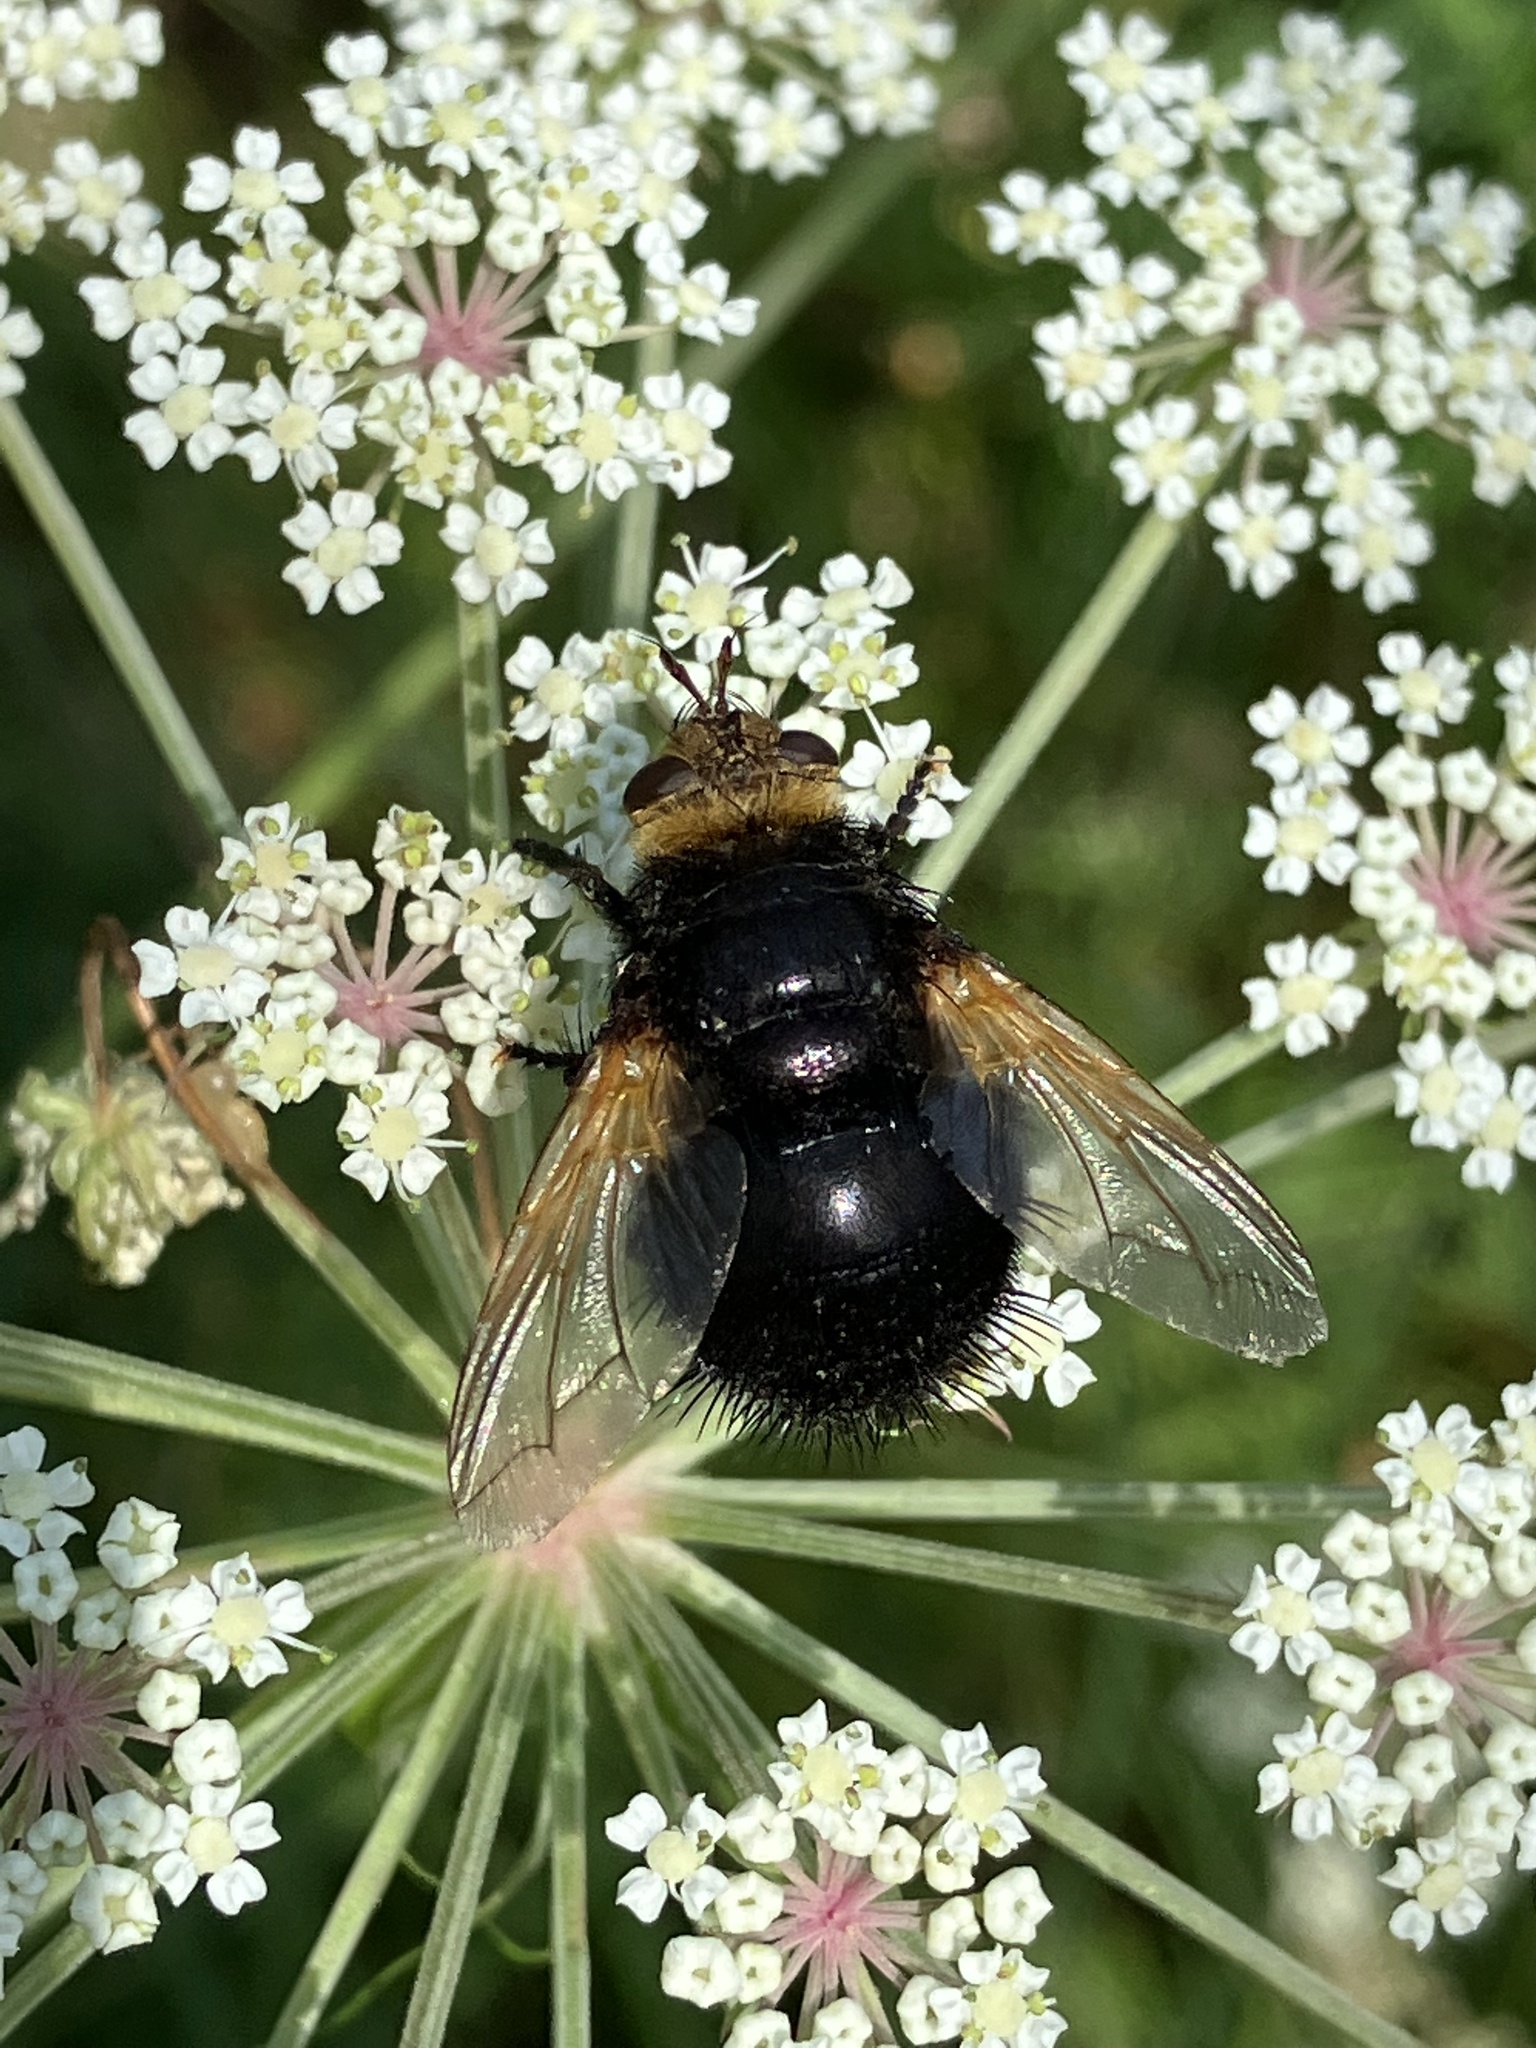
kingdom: Animalia
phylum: Arthropoda
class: Insecta
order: Diptera
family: Tachinidae
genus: Tachina
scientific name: Tachina grossa
